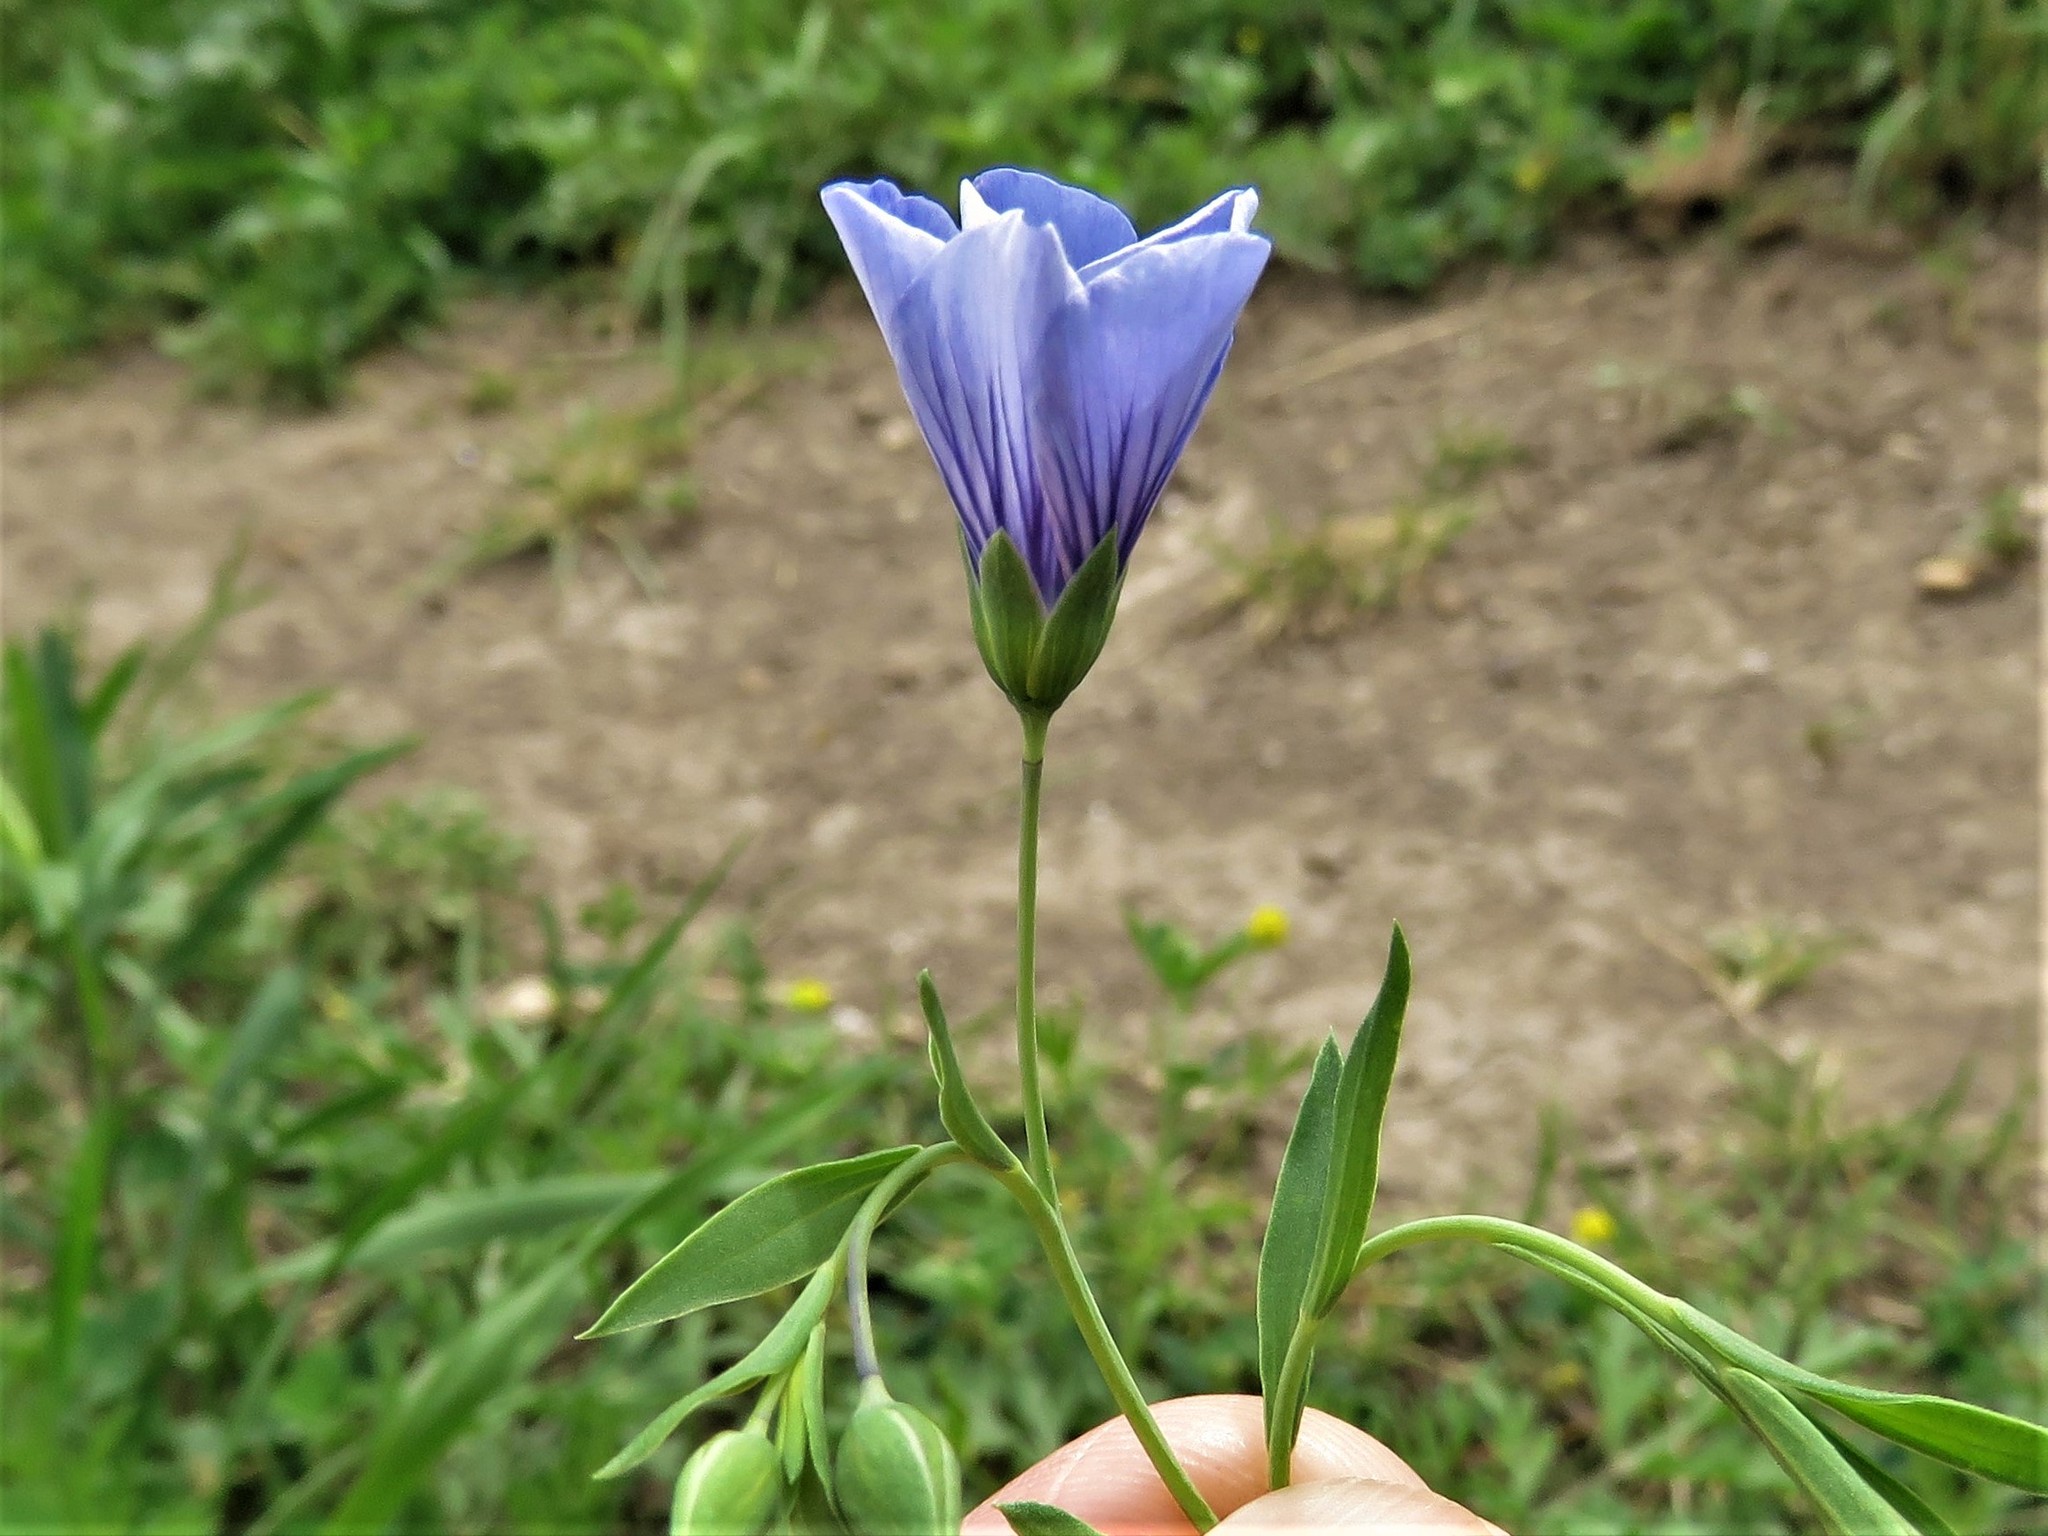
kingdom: Plantae
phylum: Tracheophyta
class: Magnoliopsida
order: Malpighiales
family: Linaceae
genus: Linum
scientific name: Linum pratense
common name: Norton's flax
